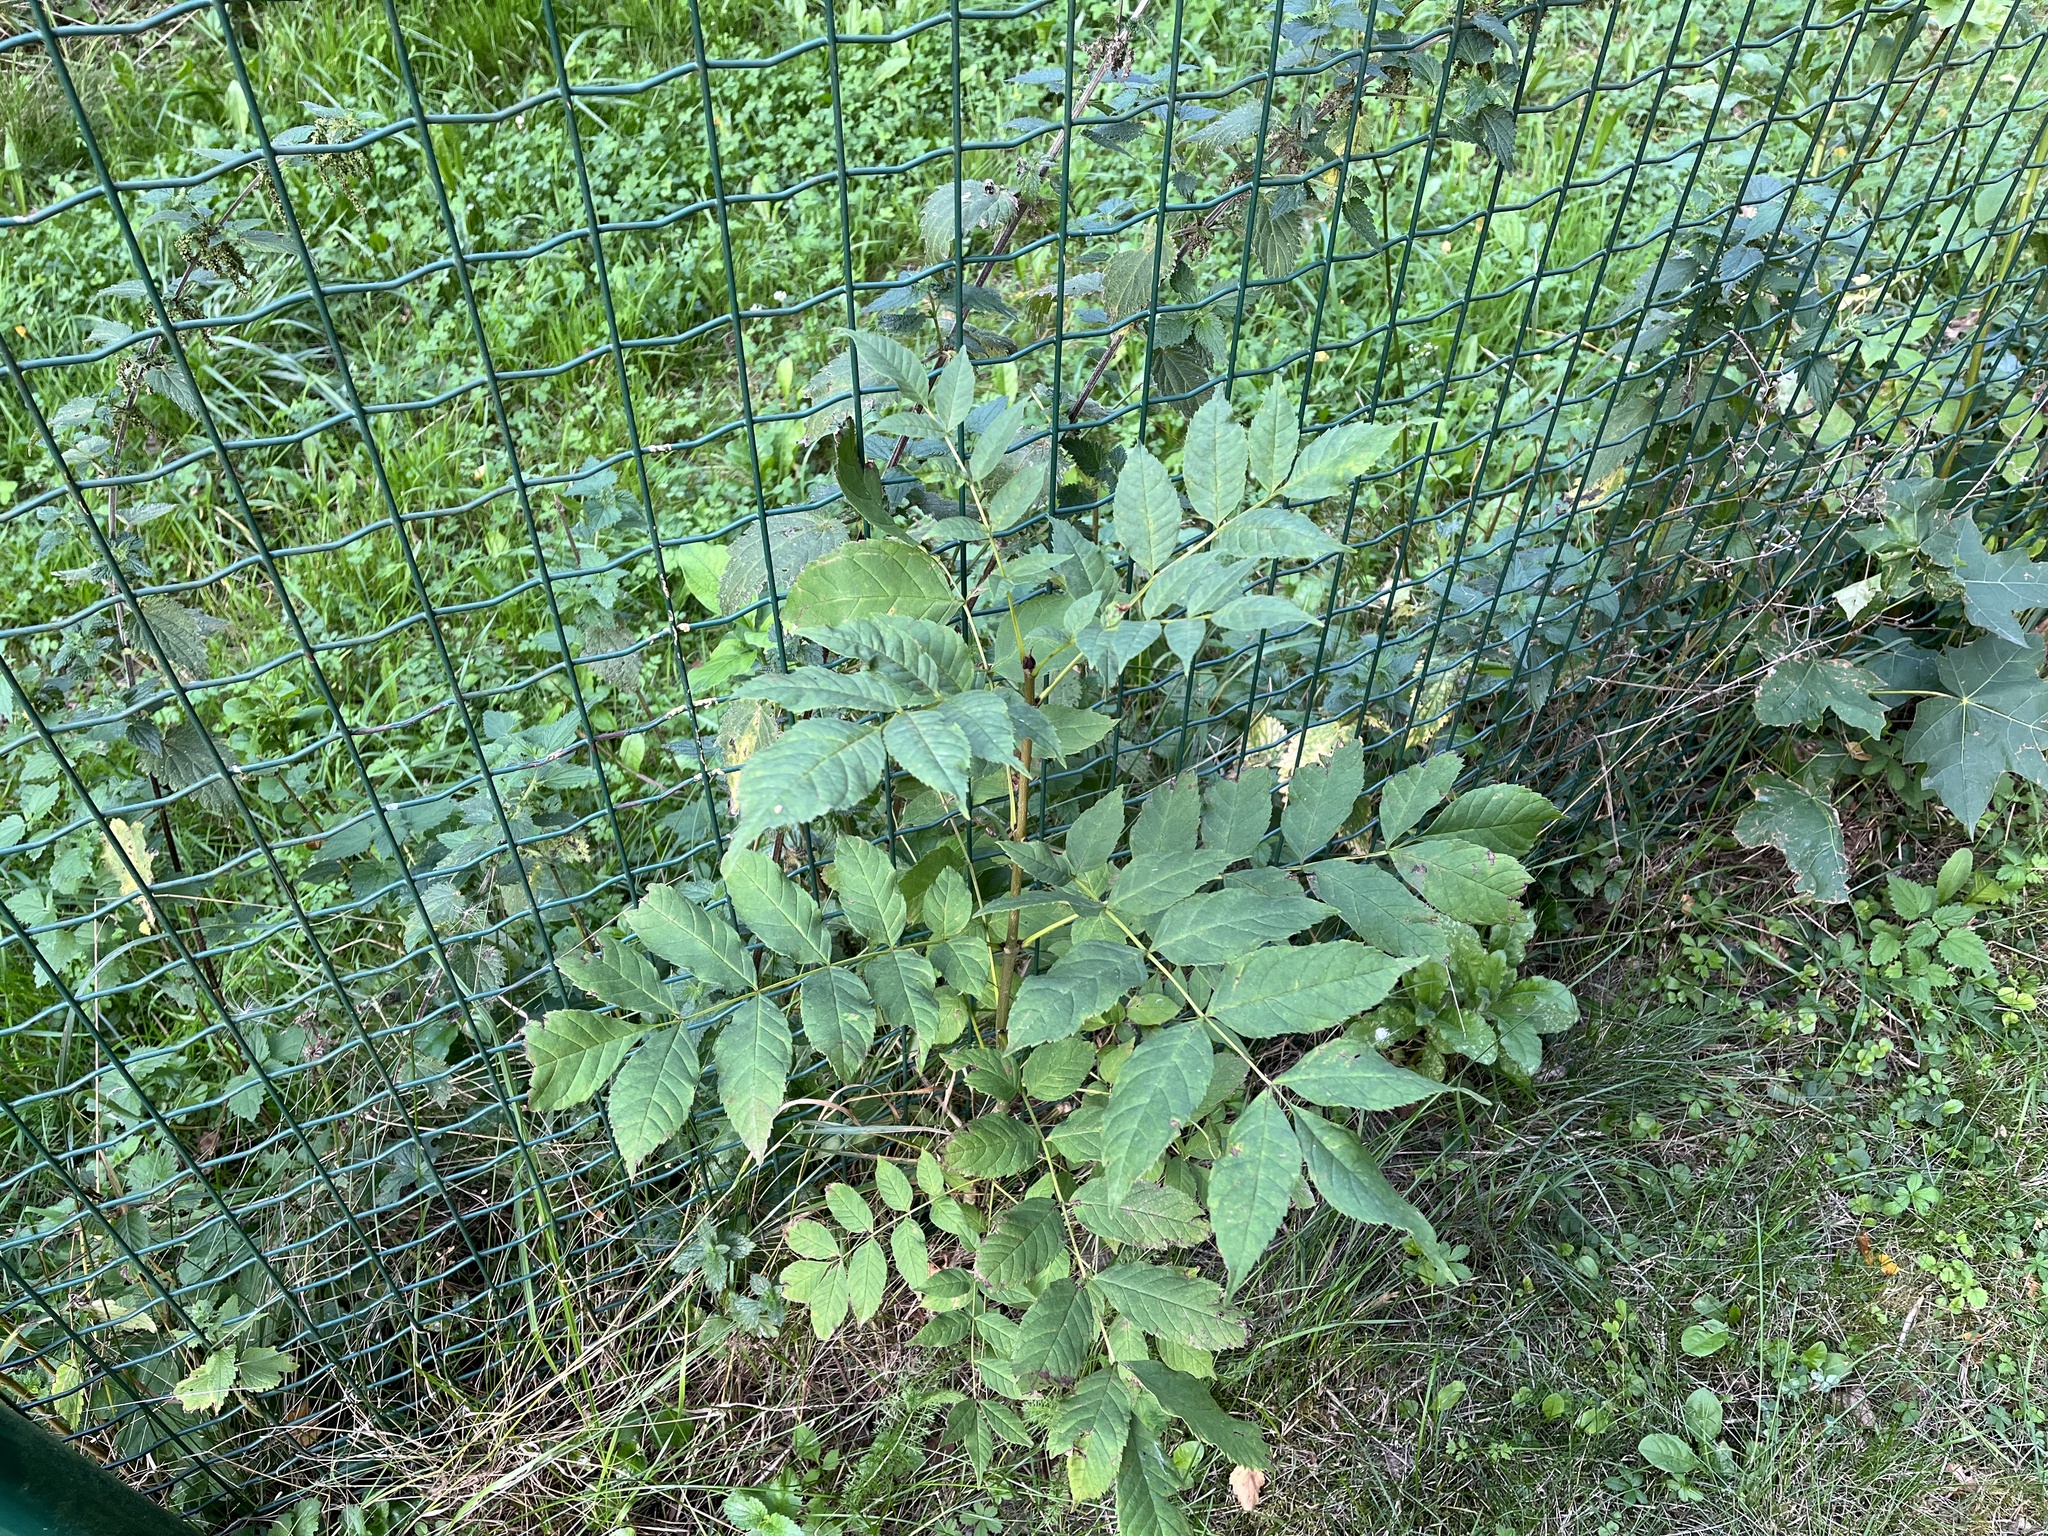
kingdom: Plantae
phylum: Tracheophyta
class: Magnoliopsida
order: Lamiales
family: Oleaceae
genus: Fraxinus
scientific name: Fraxinus excelsior
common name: European ash
